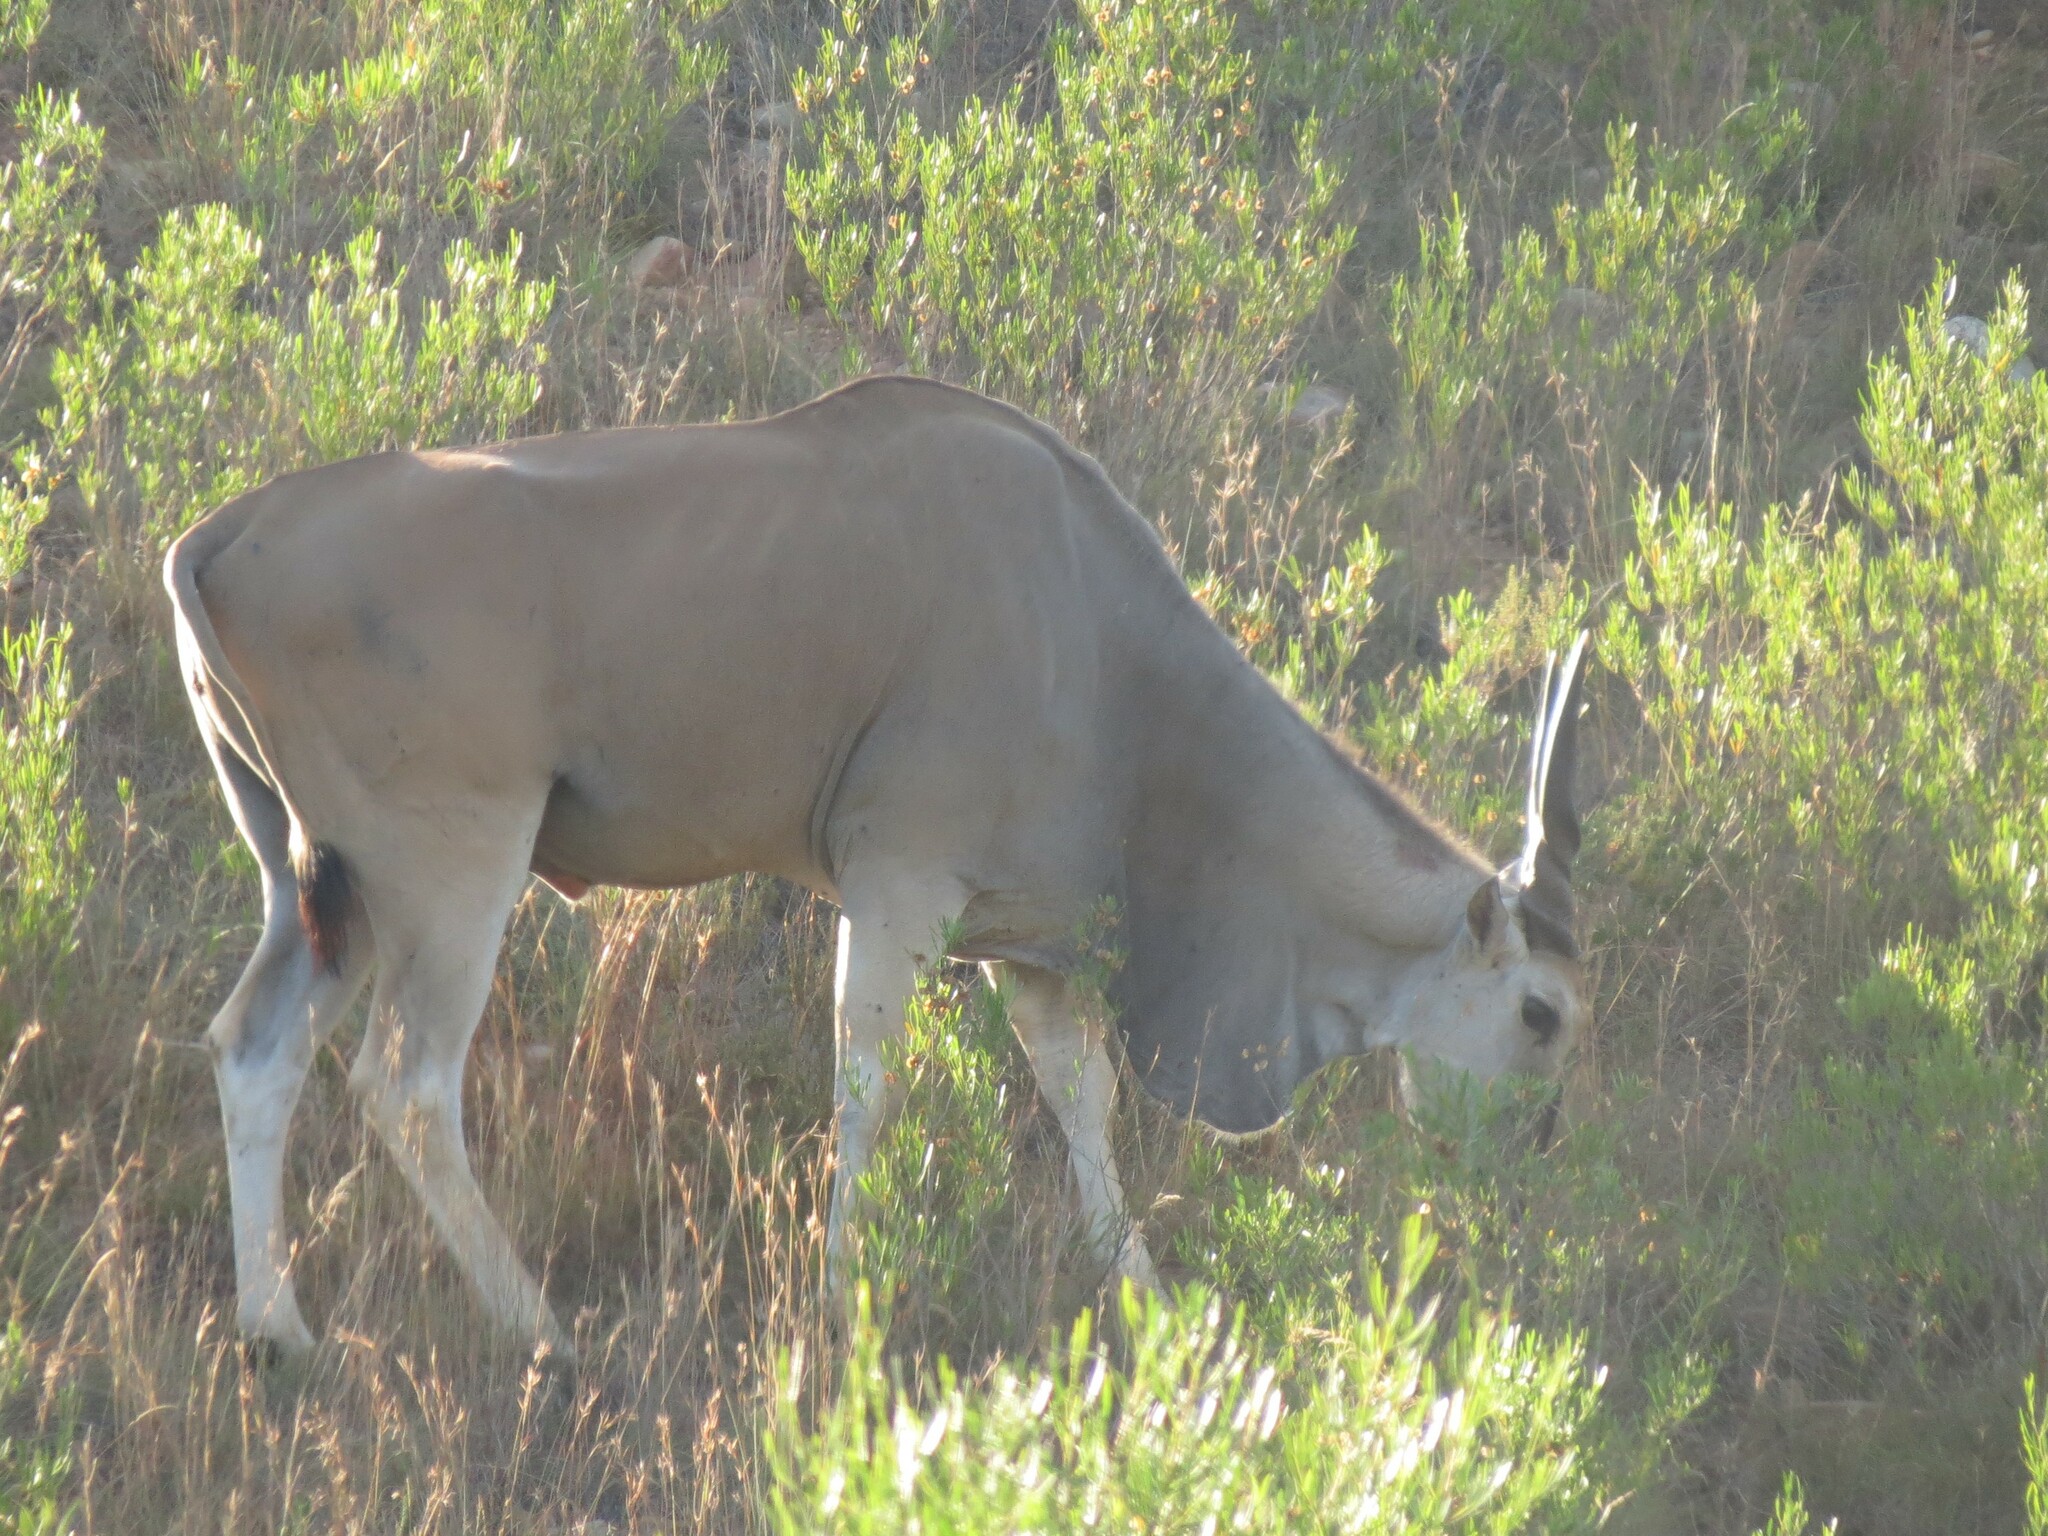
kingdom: Animalia
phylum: Chordata
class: Mammalia
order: Artiodactyla
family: Bovidae
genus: Taurotragus
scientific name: Taurotragus oryx
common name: Common eland
